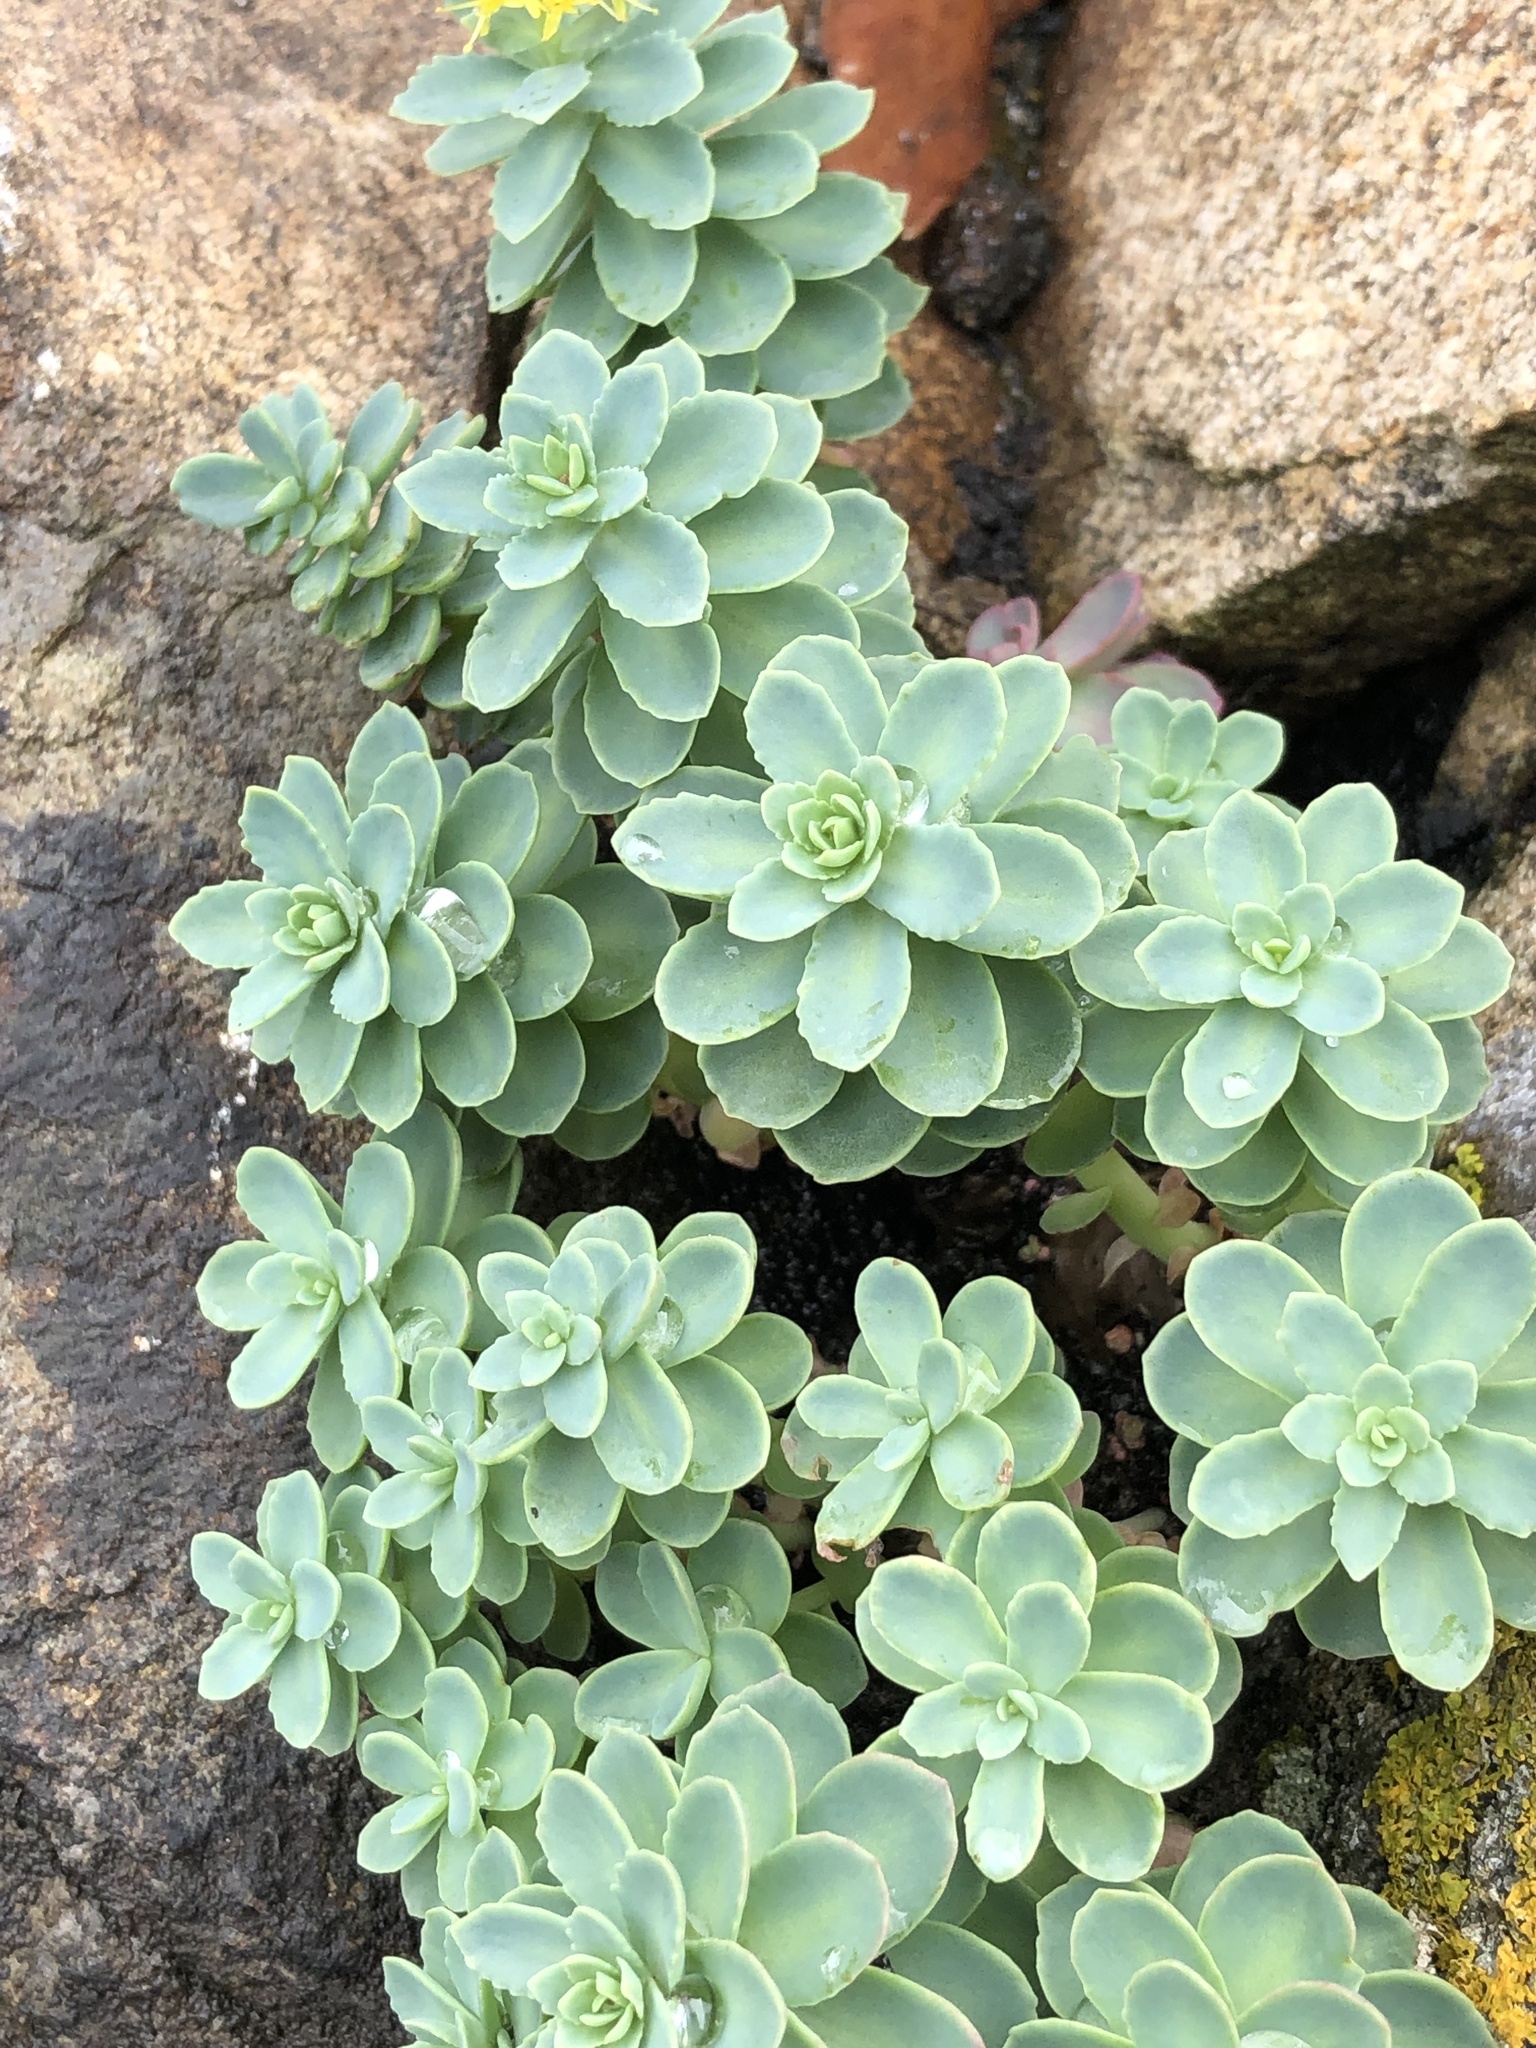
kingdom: Plantae
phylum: Tracheophyta
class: Magnoliopsida
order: Saxifragales
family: Crassulaceae
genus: Rhodiola
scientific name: Rhodiola rosea
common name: Roseroot
